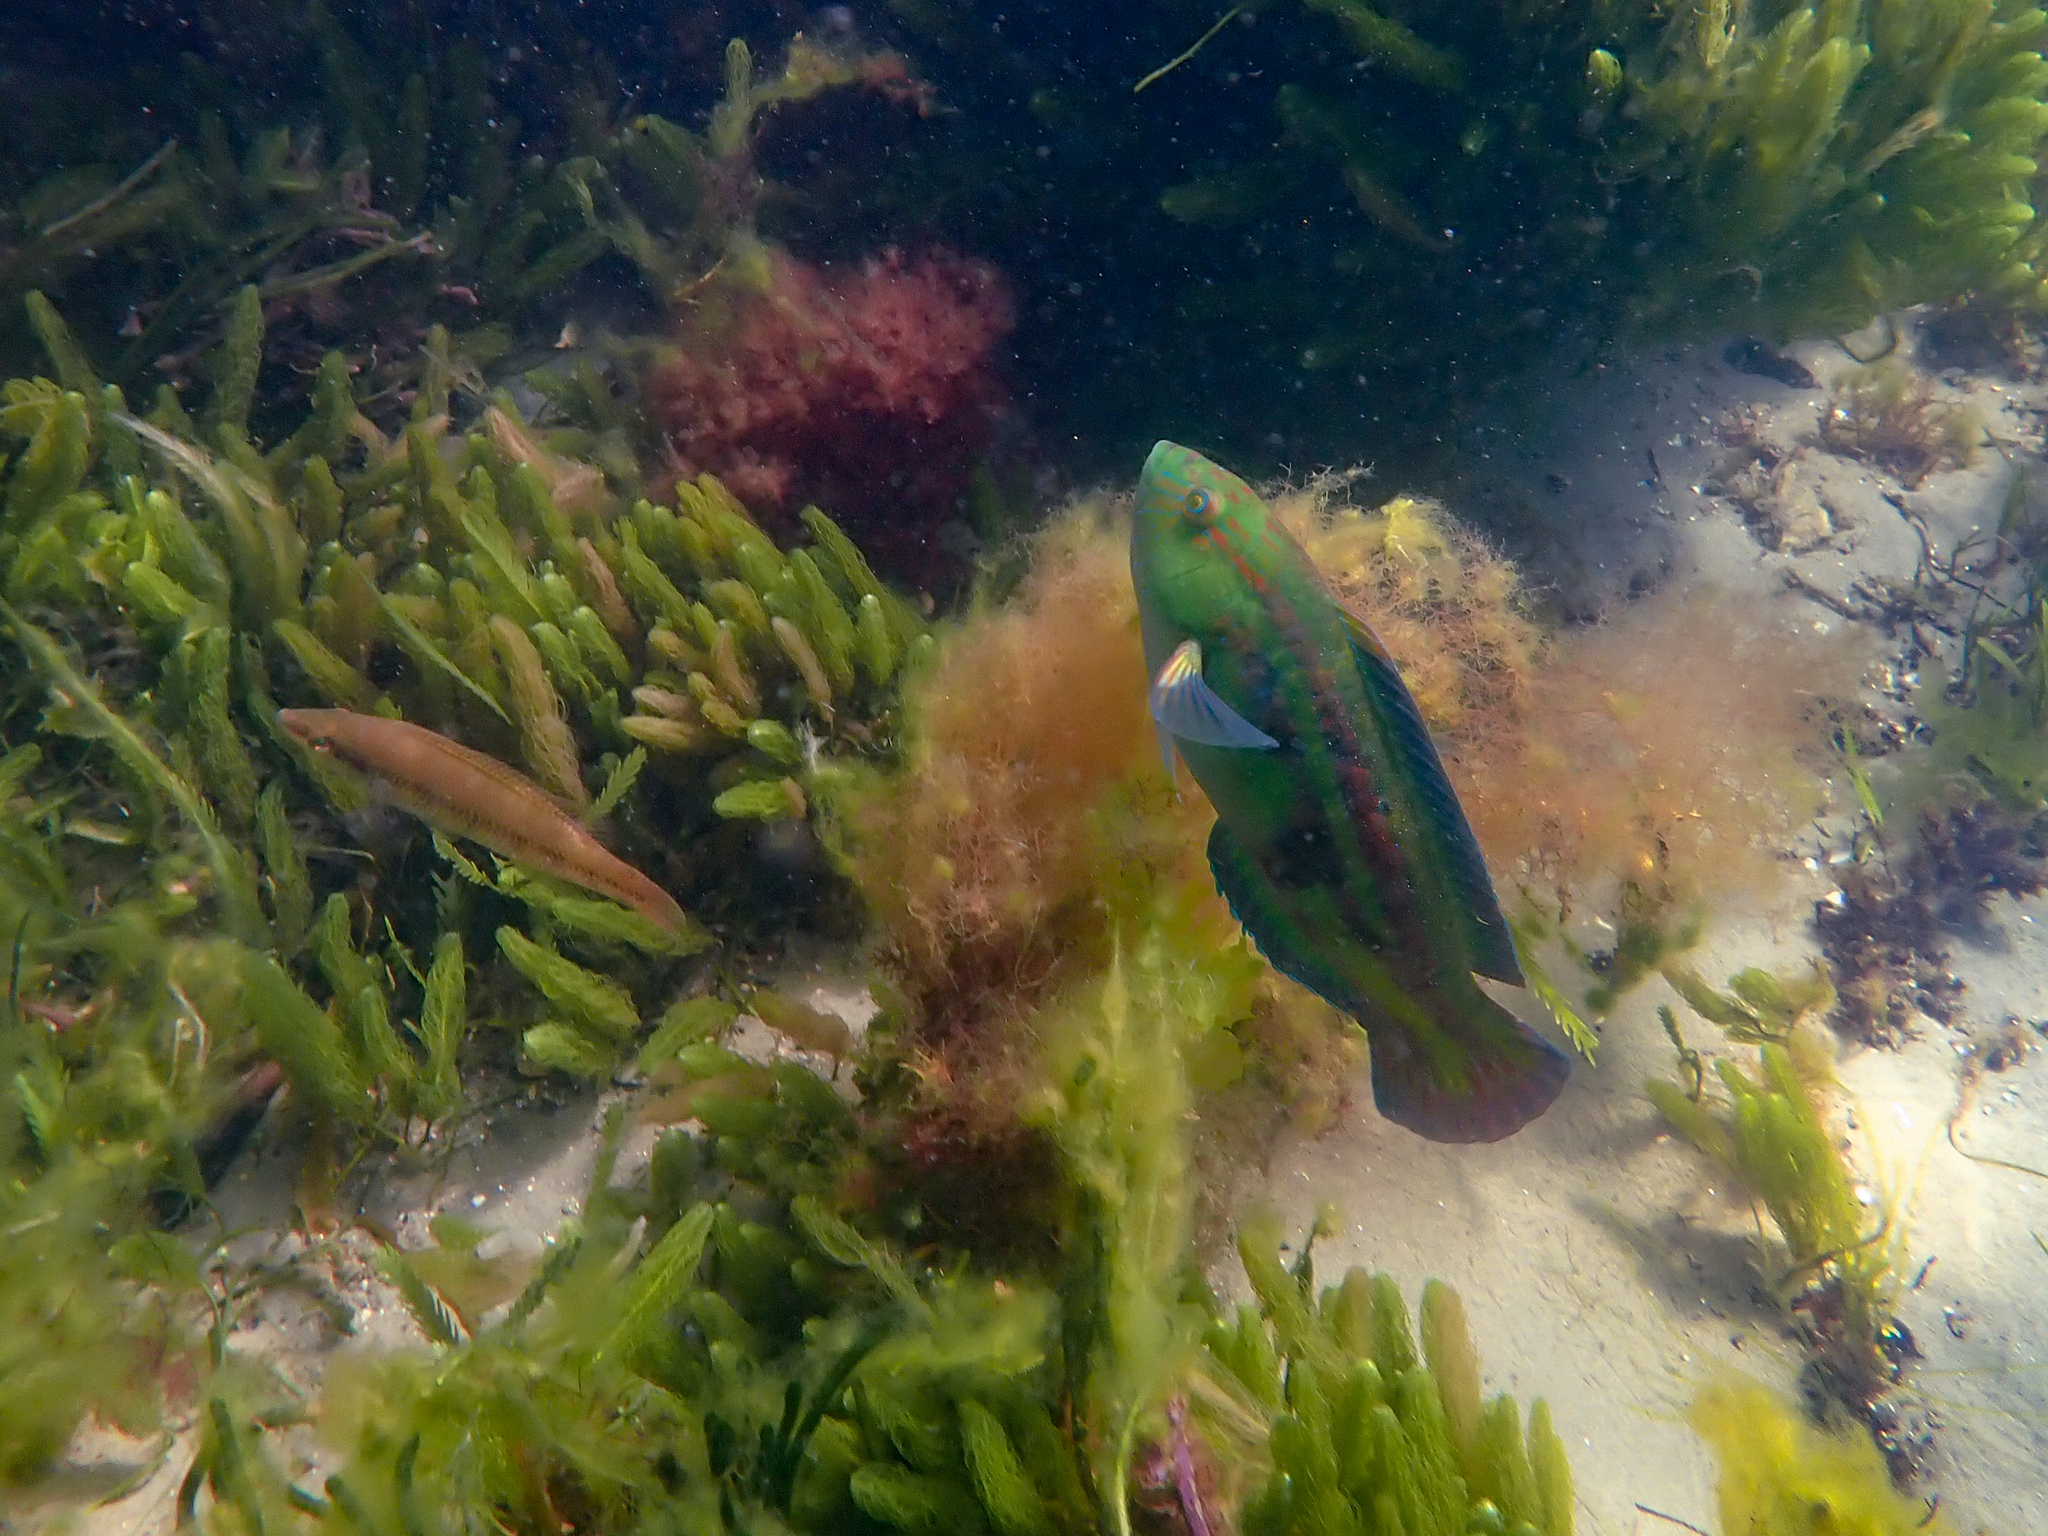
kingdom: Animalia
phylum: Chordata
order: Perciformes
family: Labridae
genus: Pictilabrus
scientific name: Pictilabrus laticlavius
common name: Patrician wrasse
